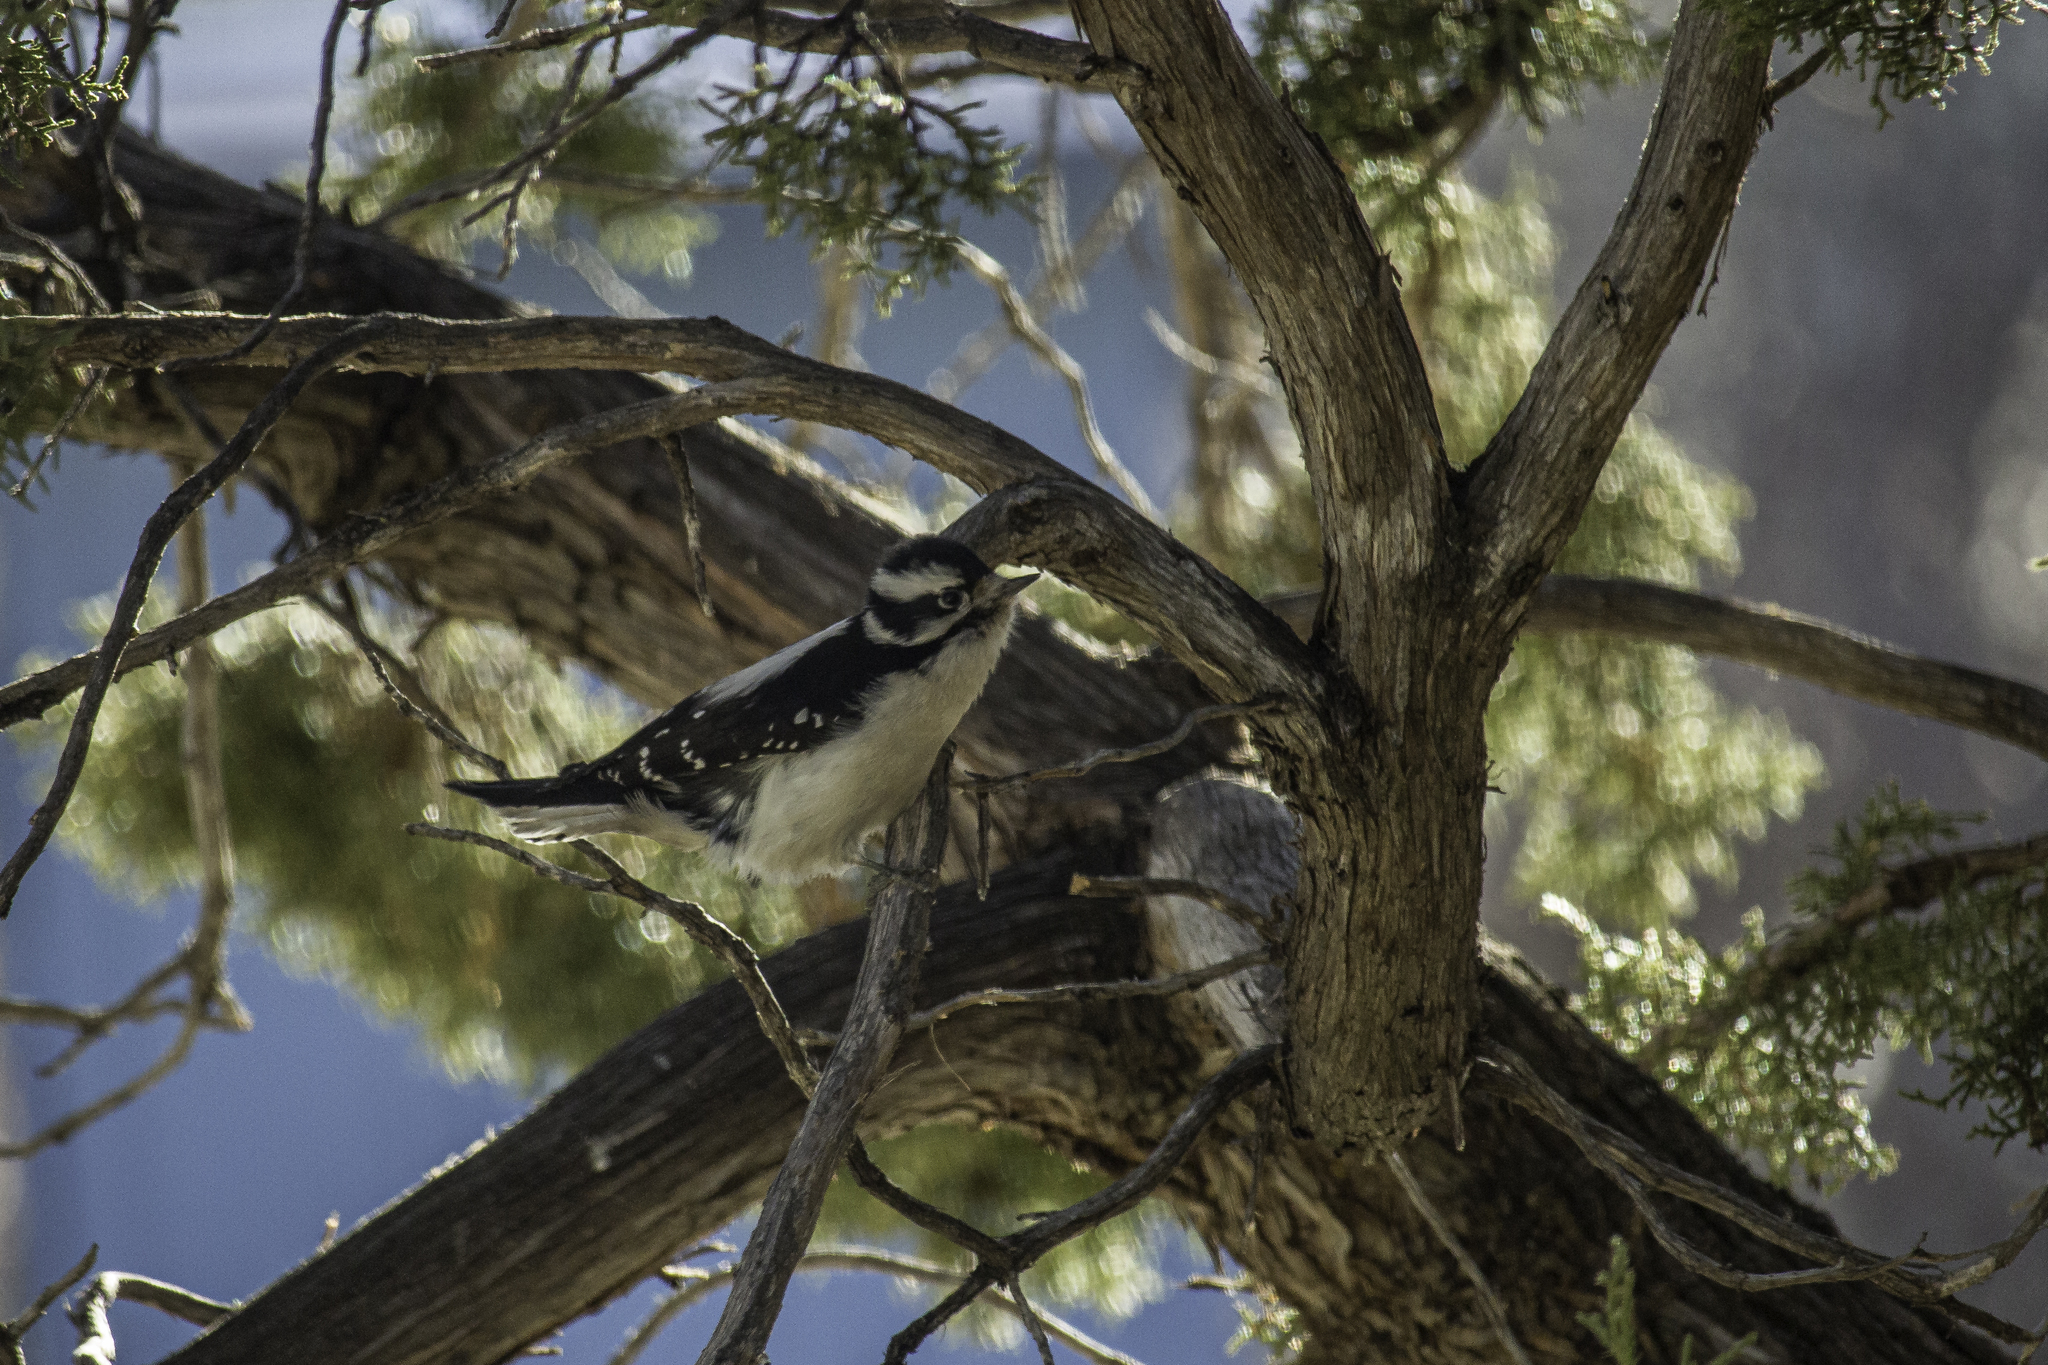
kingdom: Animalia
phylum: Chordata
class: Aves
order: Piciformes
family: Picidae
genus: Dryobates
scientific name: Dryobates pubescens
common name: Downy woodpecker
